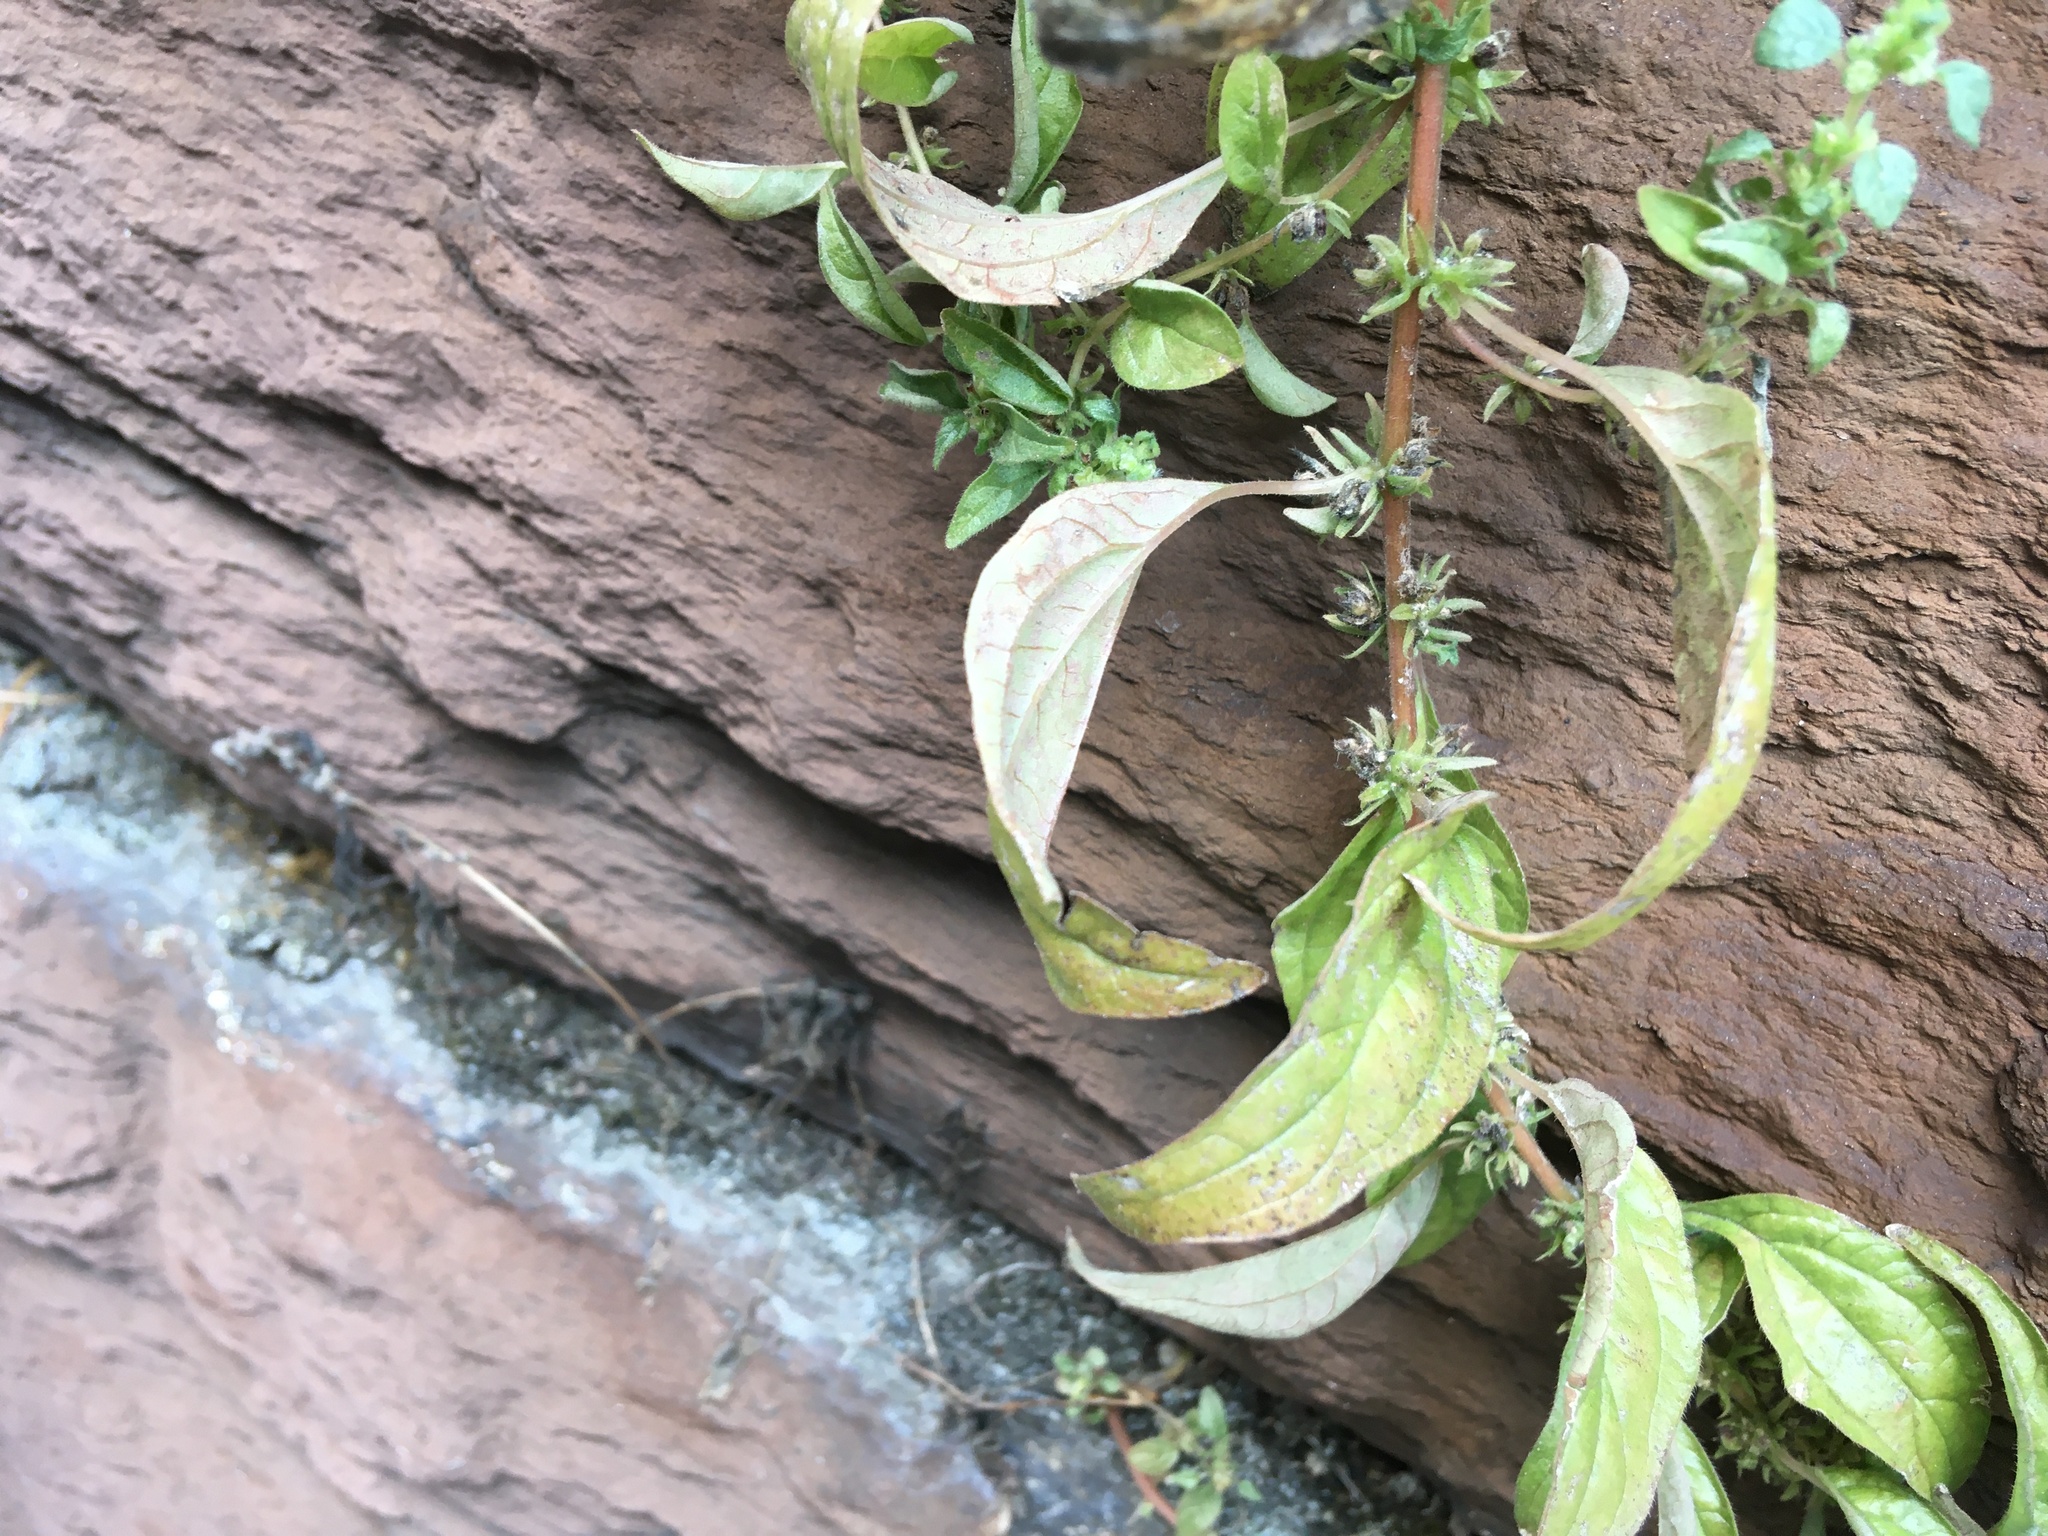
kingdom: Plantae
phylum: Tracheophyta
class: Magnoliopsida
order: Rosales
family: Urticaceae
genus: Parietaria
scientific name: Parietaria pensylvanica
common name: Pennsylvania pellitory
